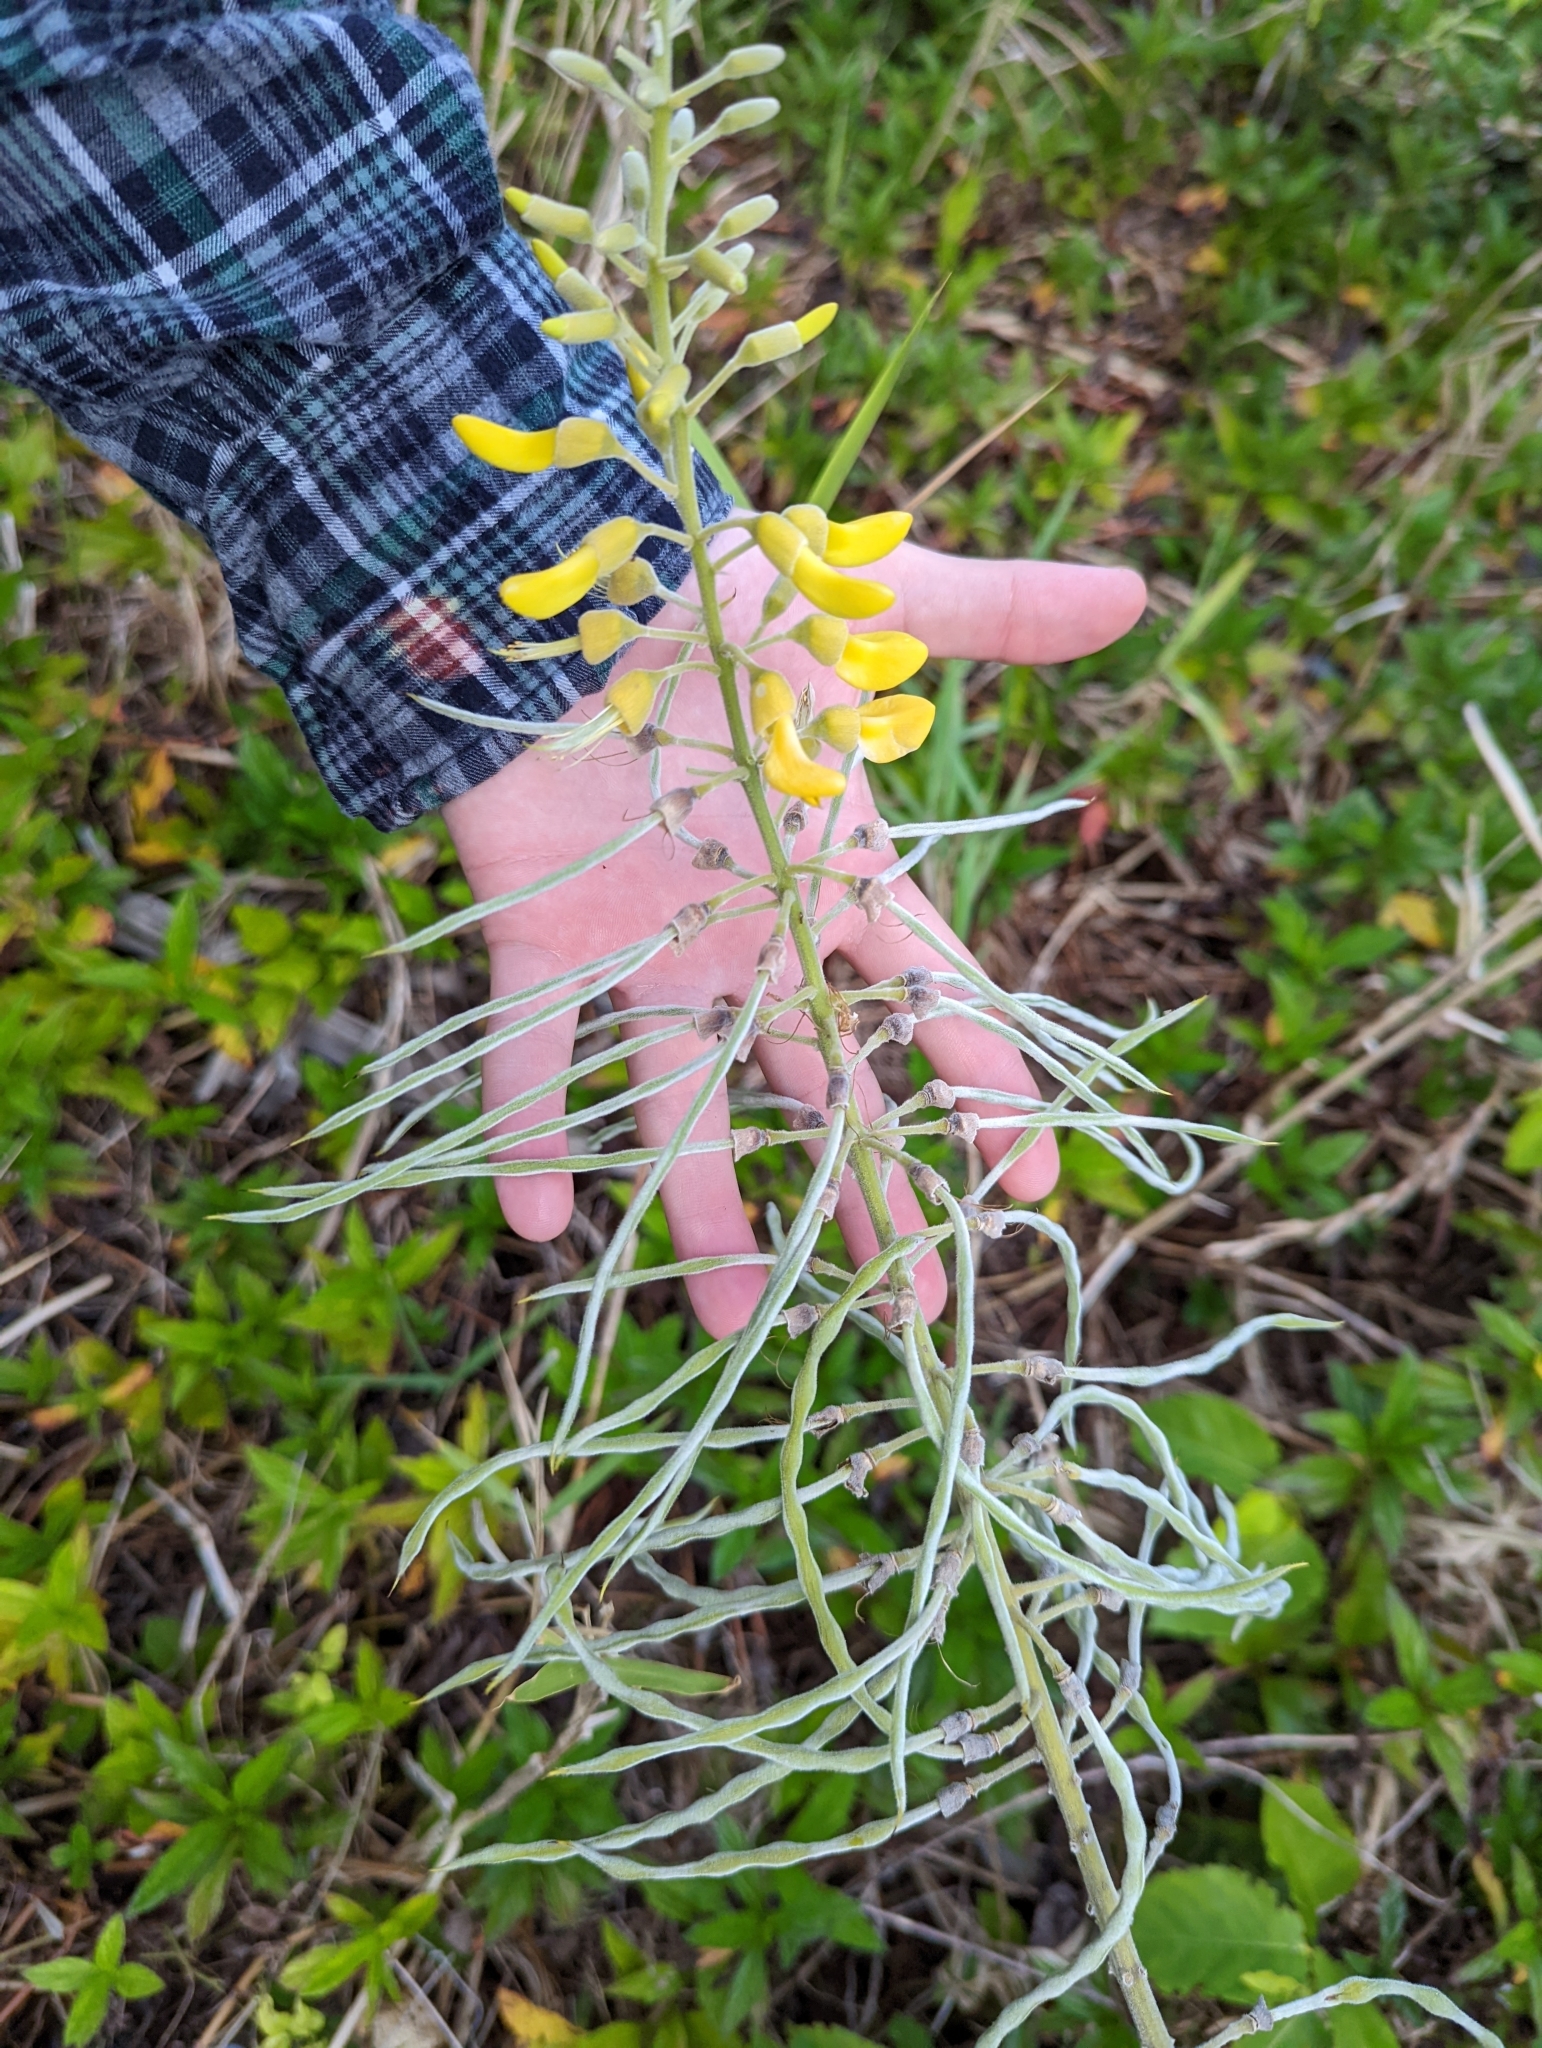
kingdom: Plantae
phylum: Tracheophyta
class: Magnoliopsida
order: Fabales
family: Fabaceae
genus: Sophora
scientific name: Sophora tomentosa
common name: Yellow necklacepod
